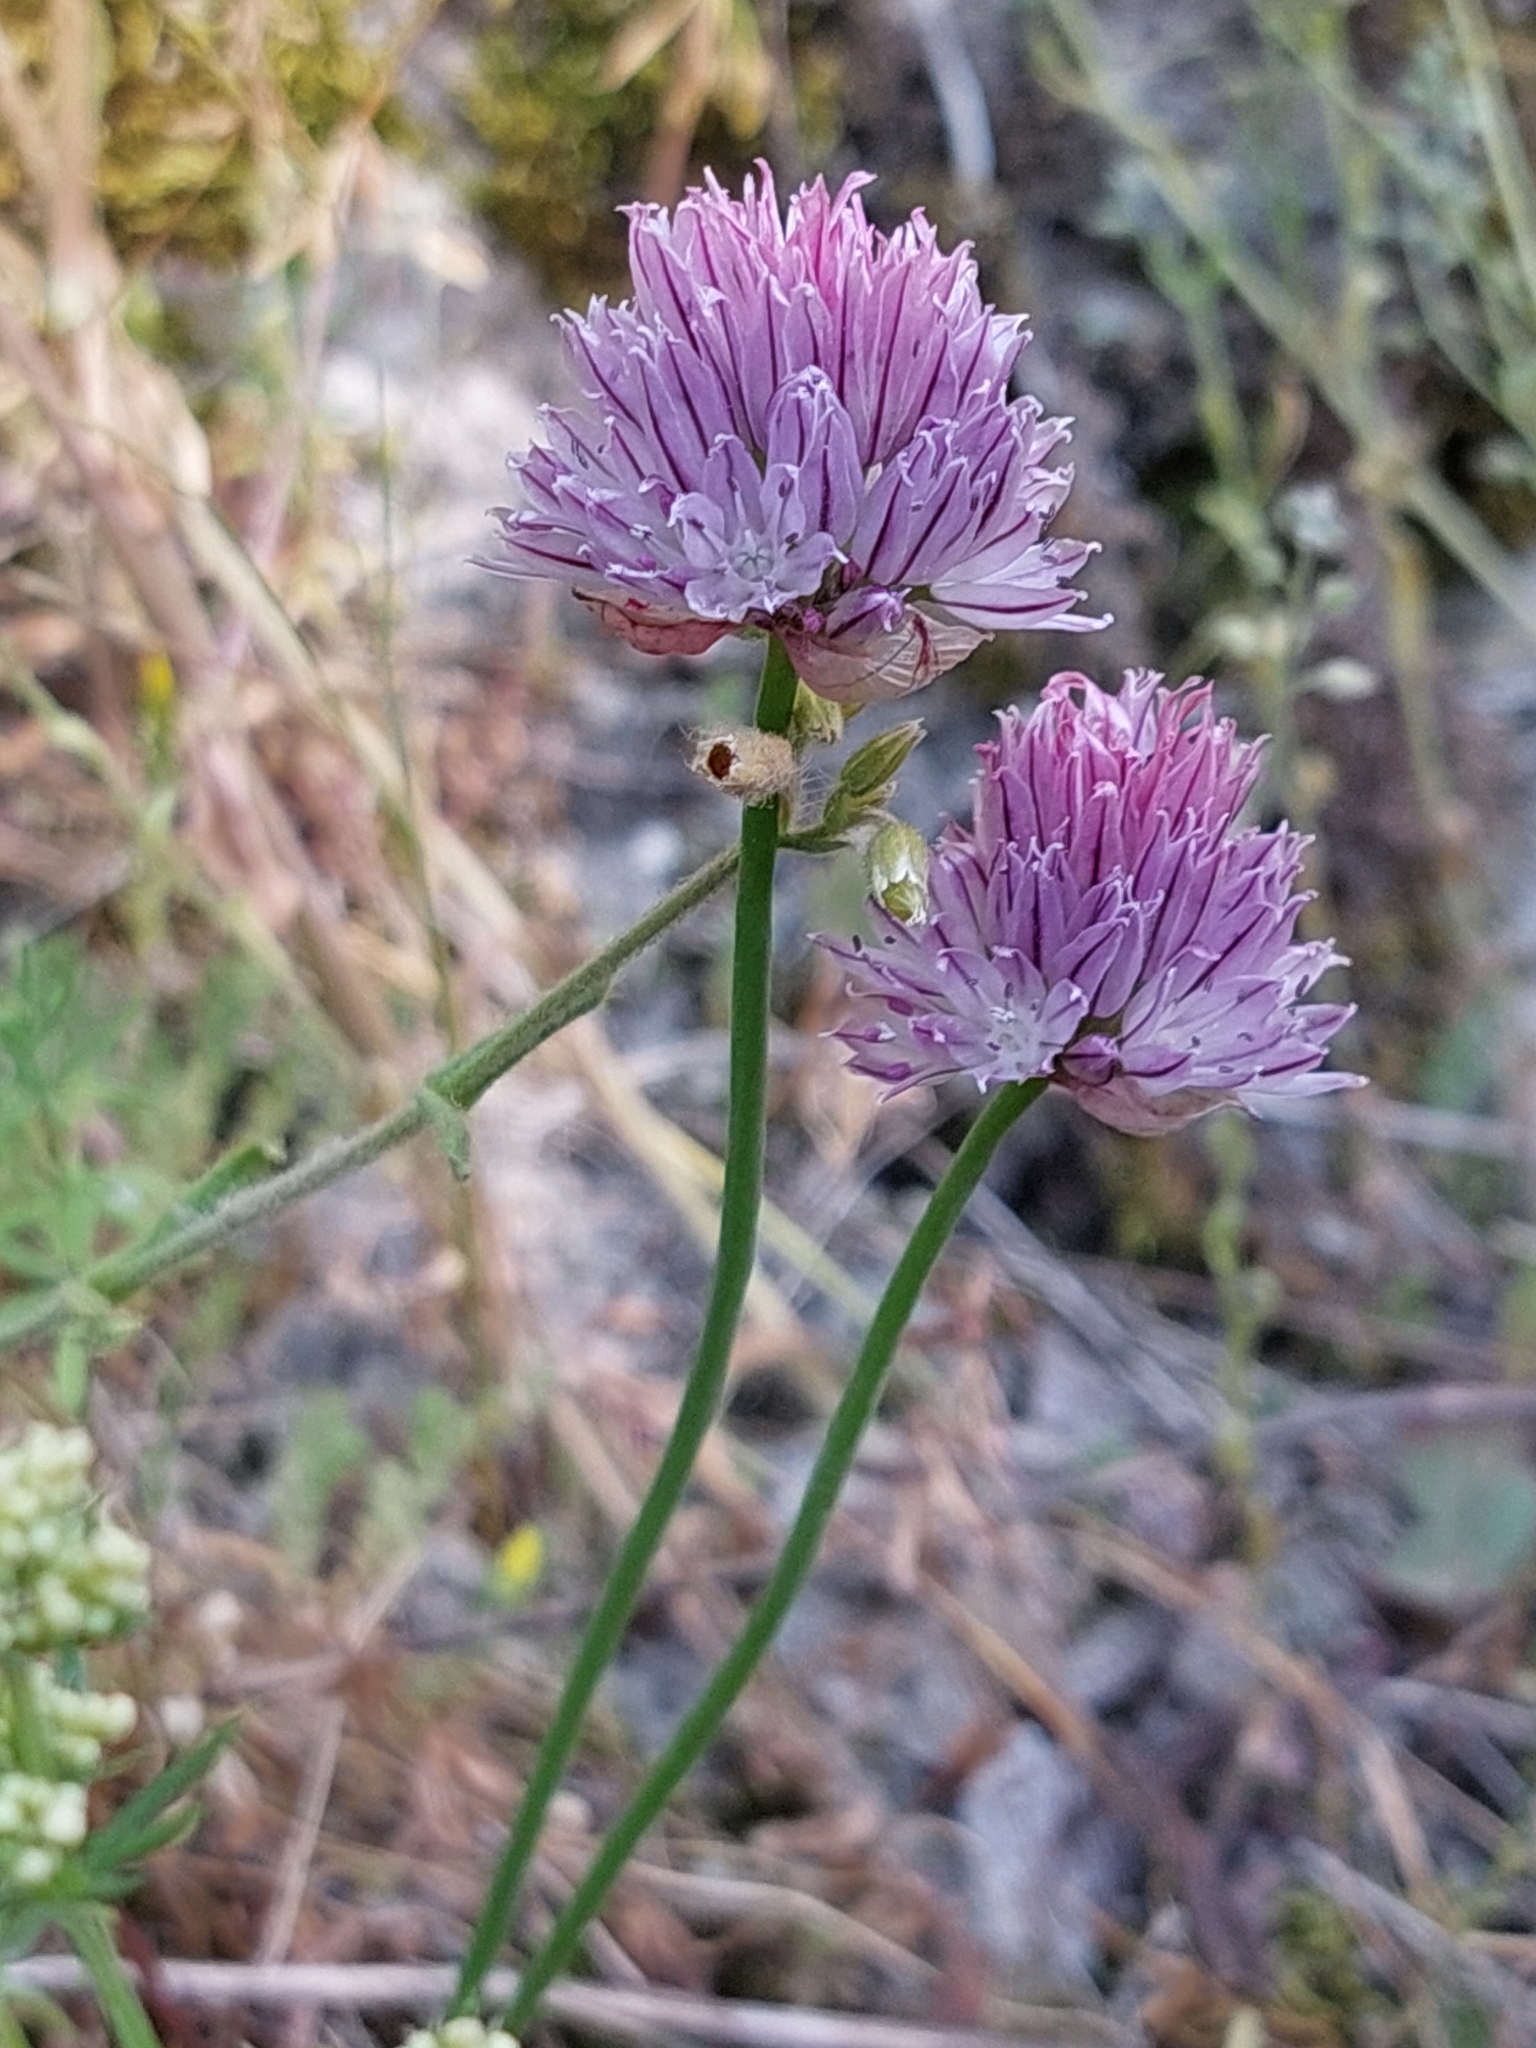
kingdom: Plantae
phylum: Tracheophyta
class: Liliopsida
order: Asparagales
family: Amaryllidaceae
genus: Allium
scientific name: Allium schoenoprasum
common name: Chives
